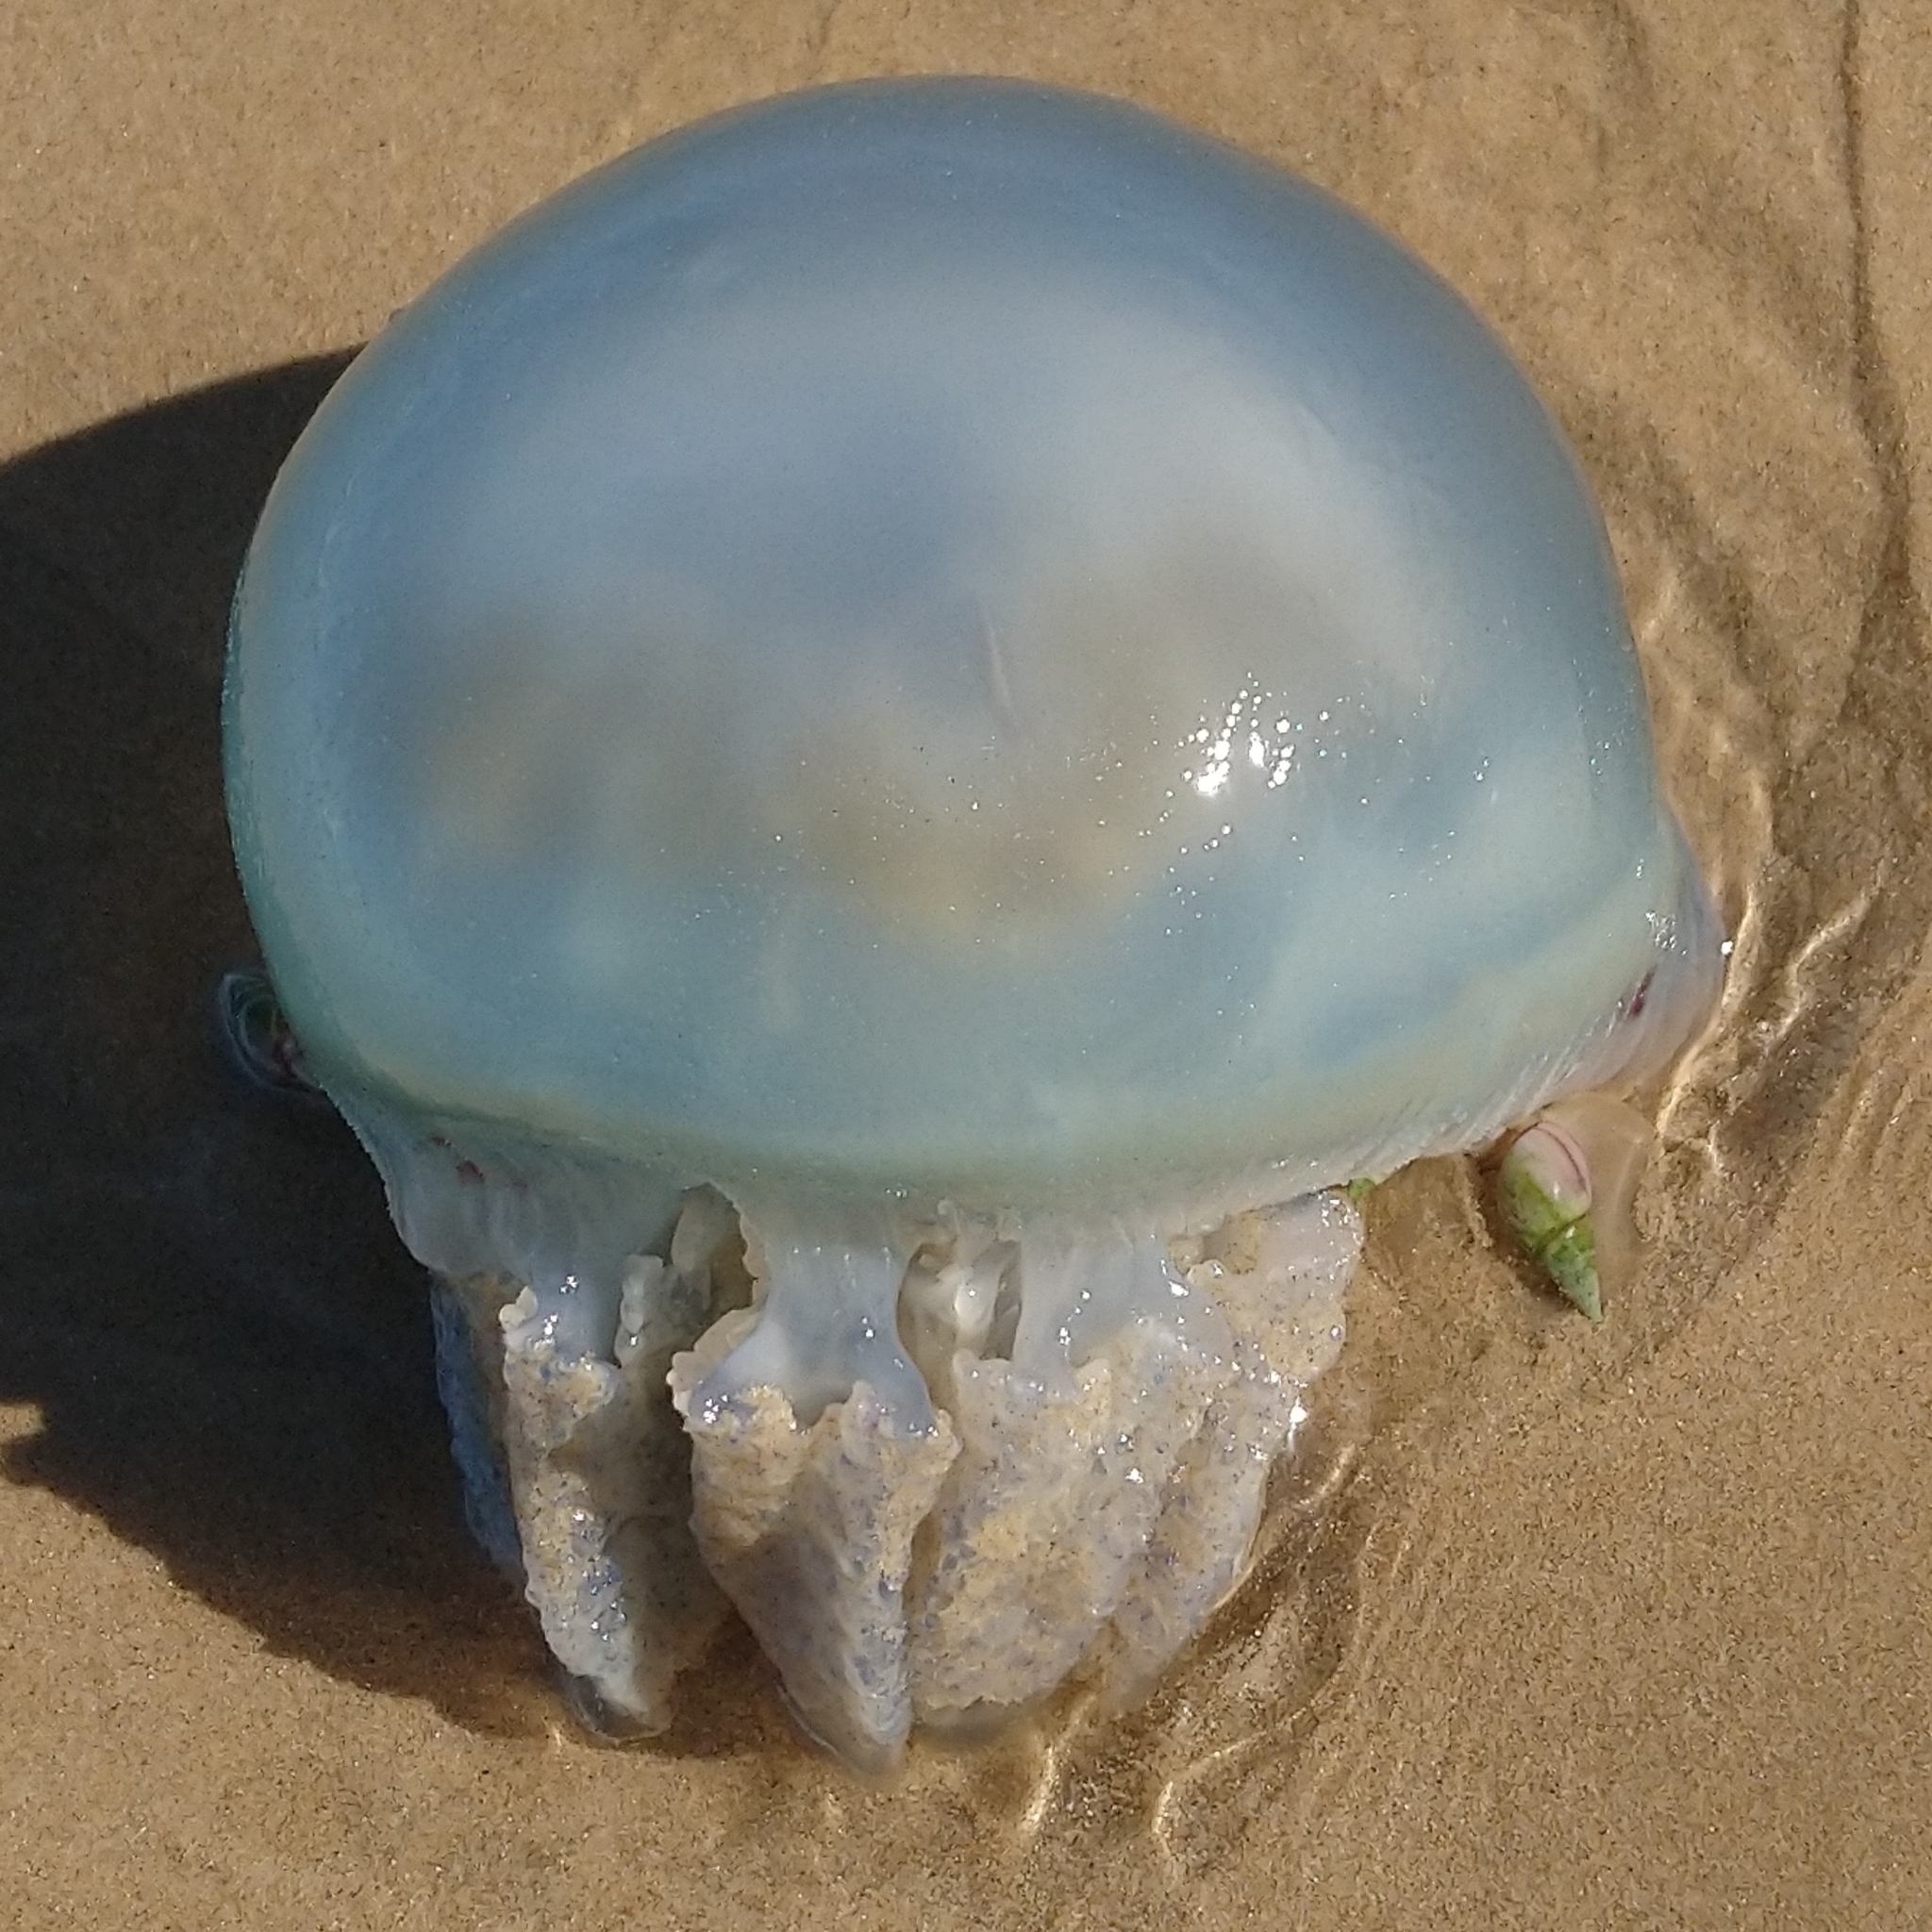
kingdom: Animalia
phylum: Cnidaria
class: Scyphozoa
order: Rhizostomeae
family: Catostylidae
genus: Crambionella
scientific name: Crambionella stuhlmanni
